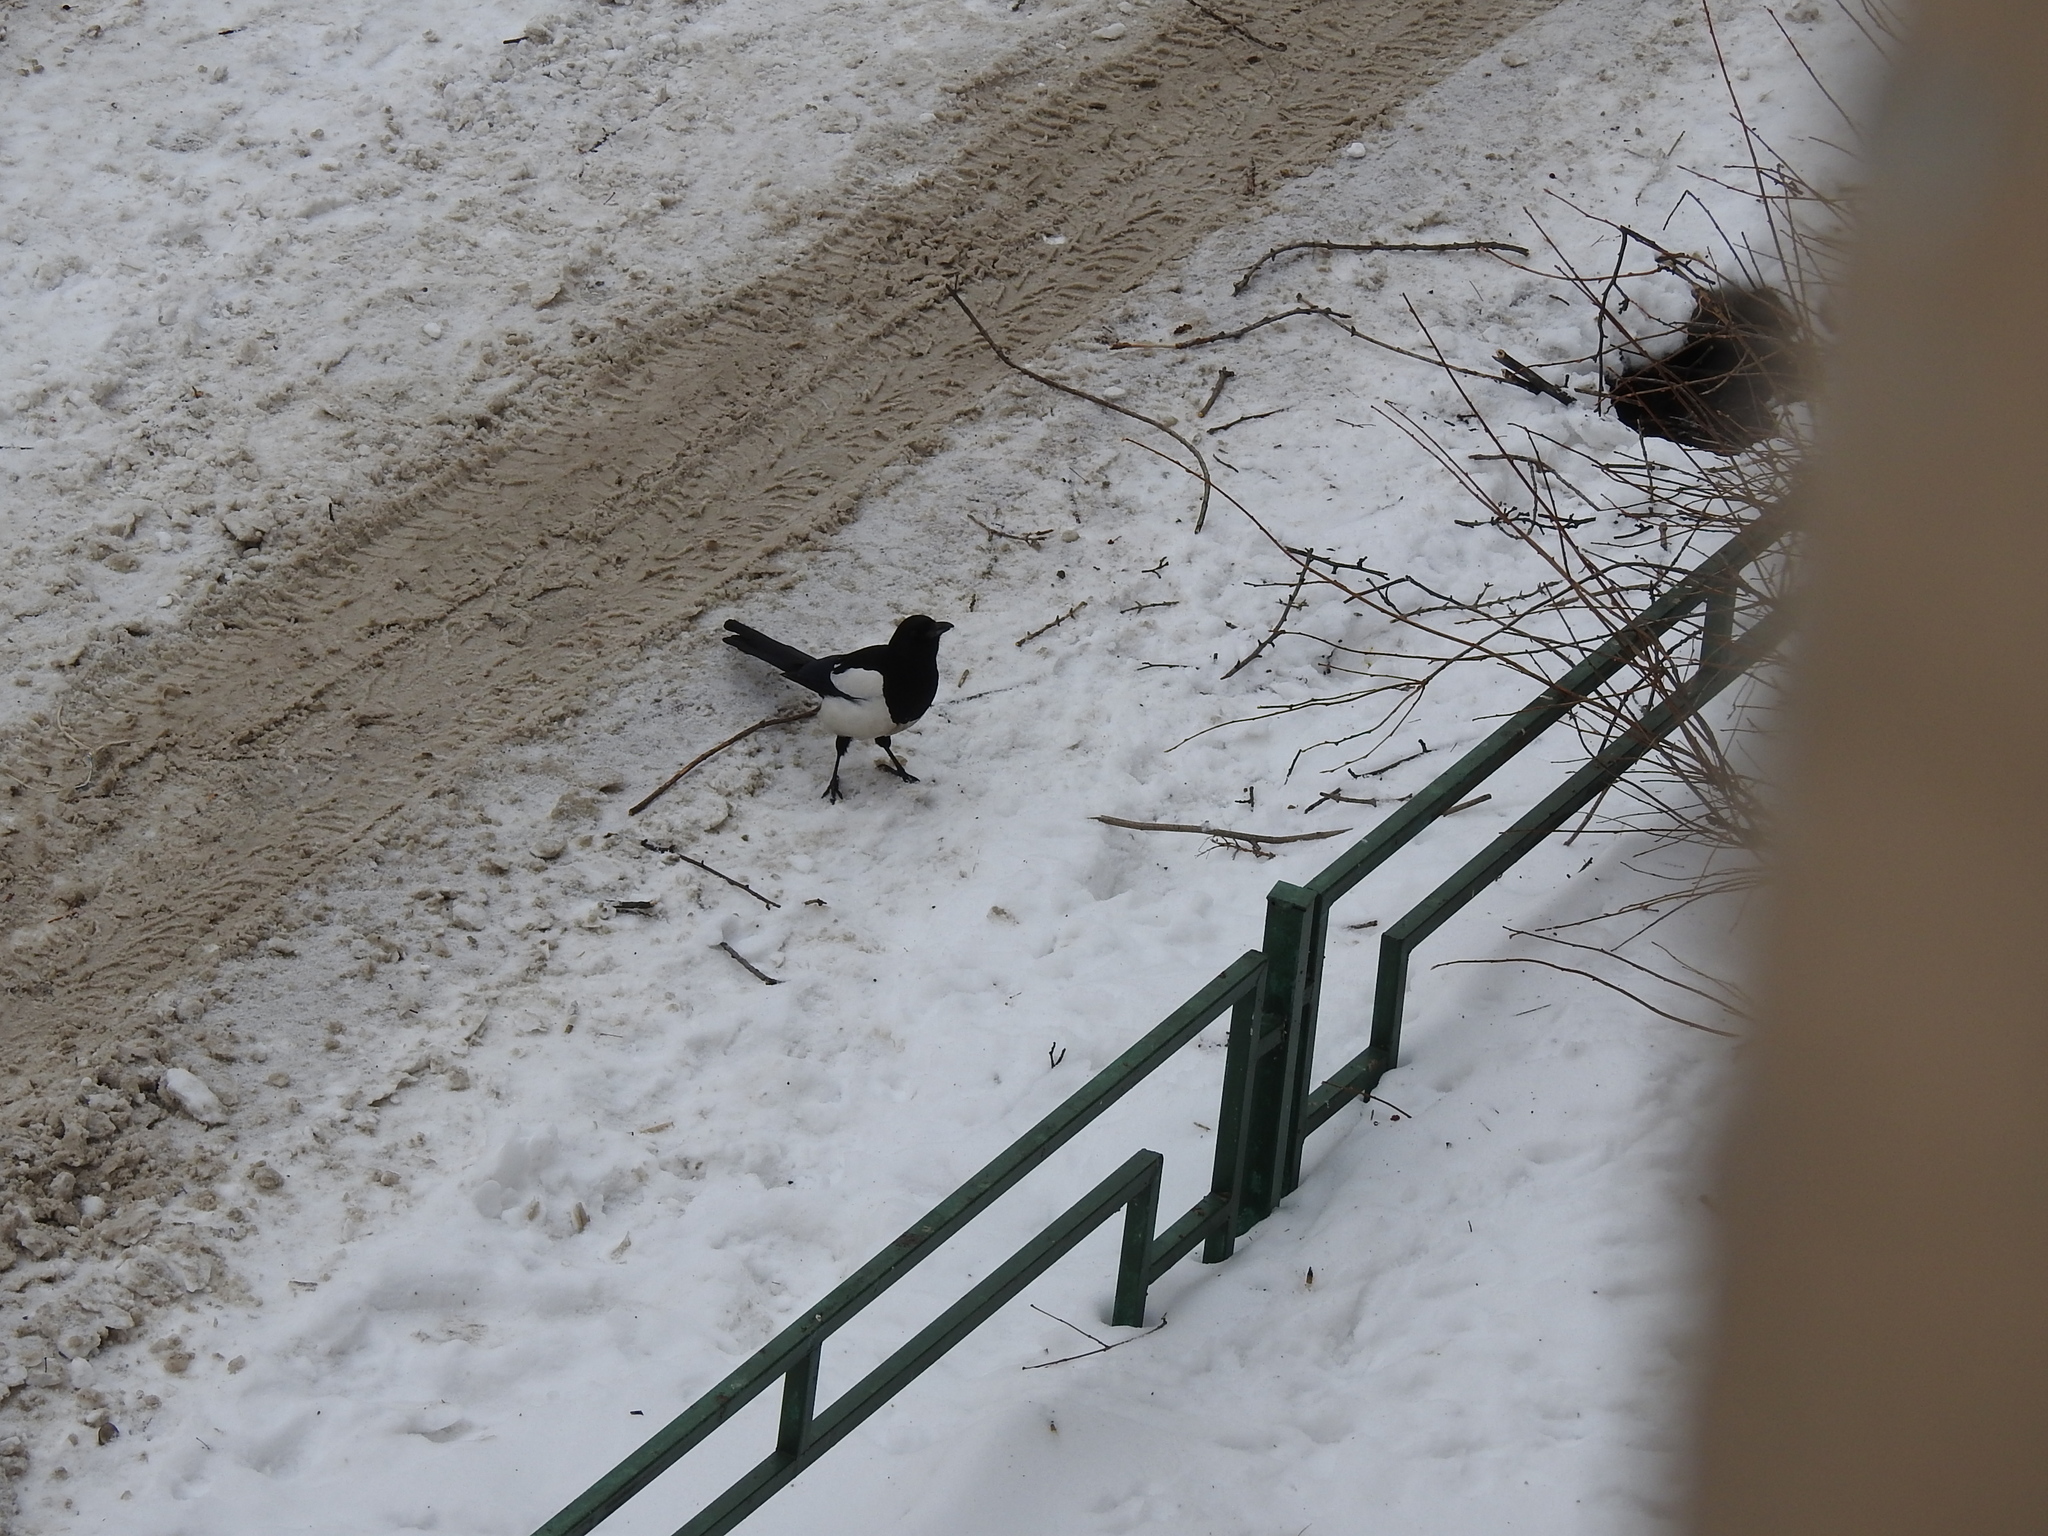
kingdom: Animalia
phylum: Chordata
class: Aves
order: Passeriformes
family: Corvidae
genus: Pica
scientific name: Pica pica
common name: Eurasian magpie
